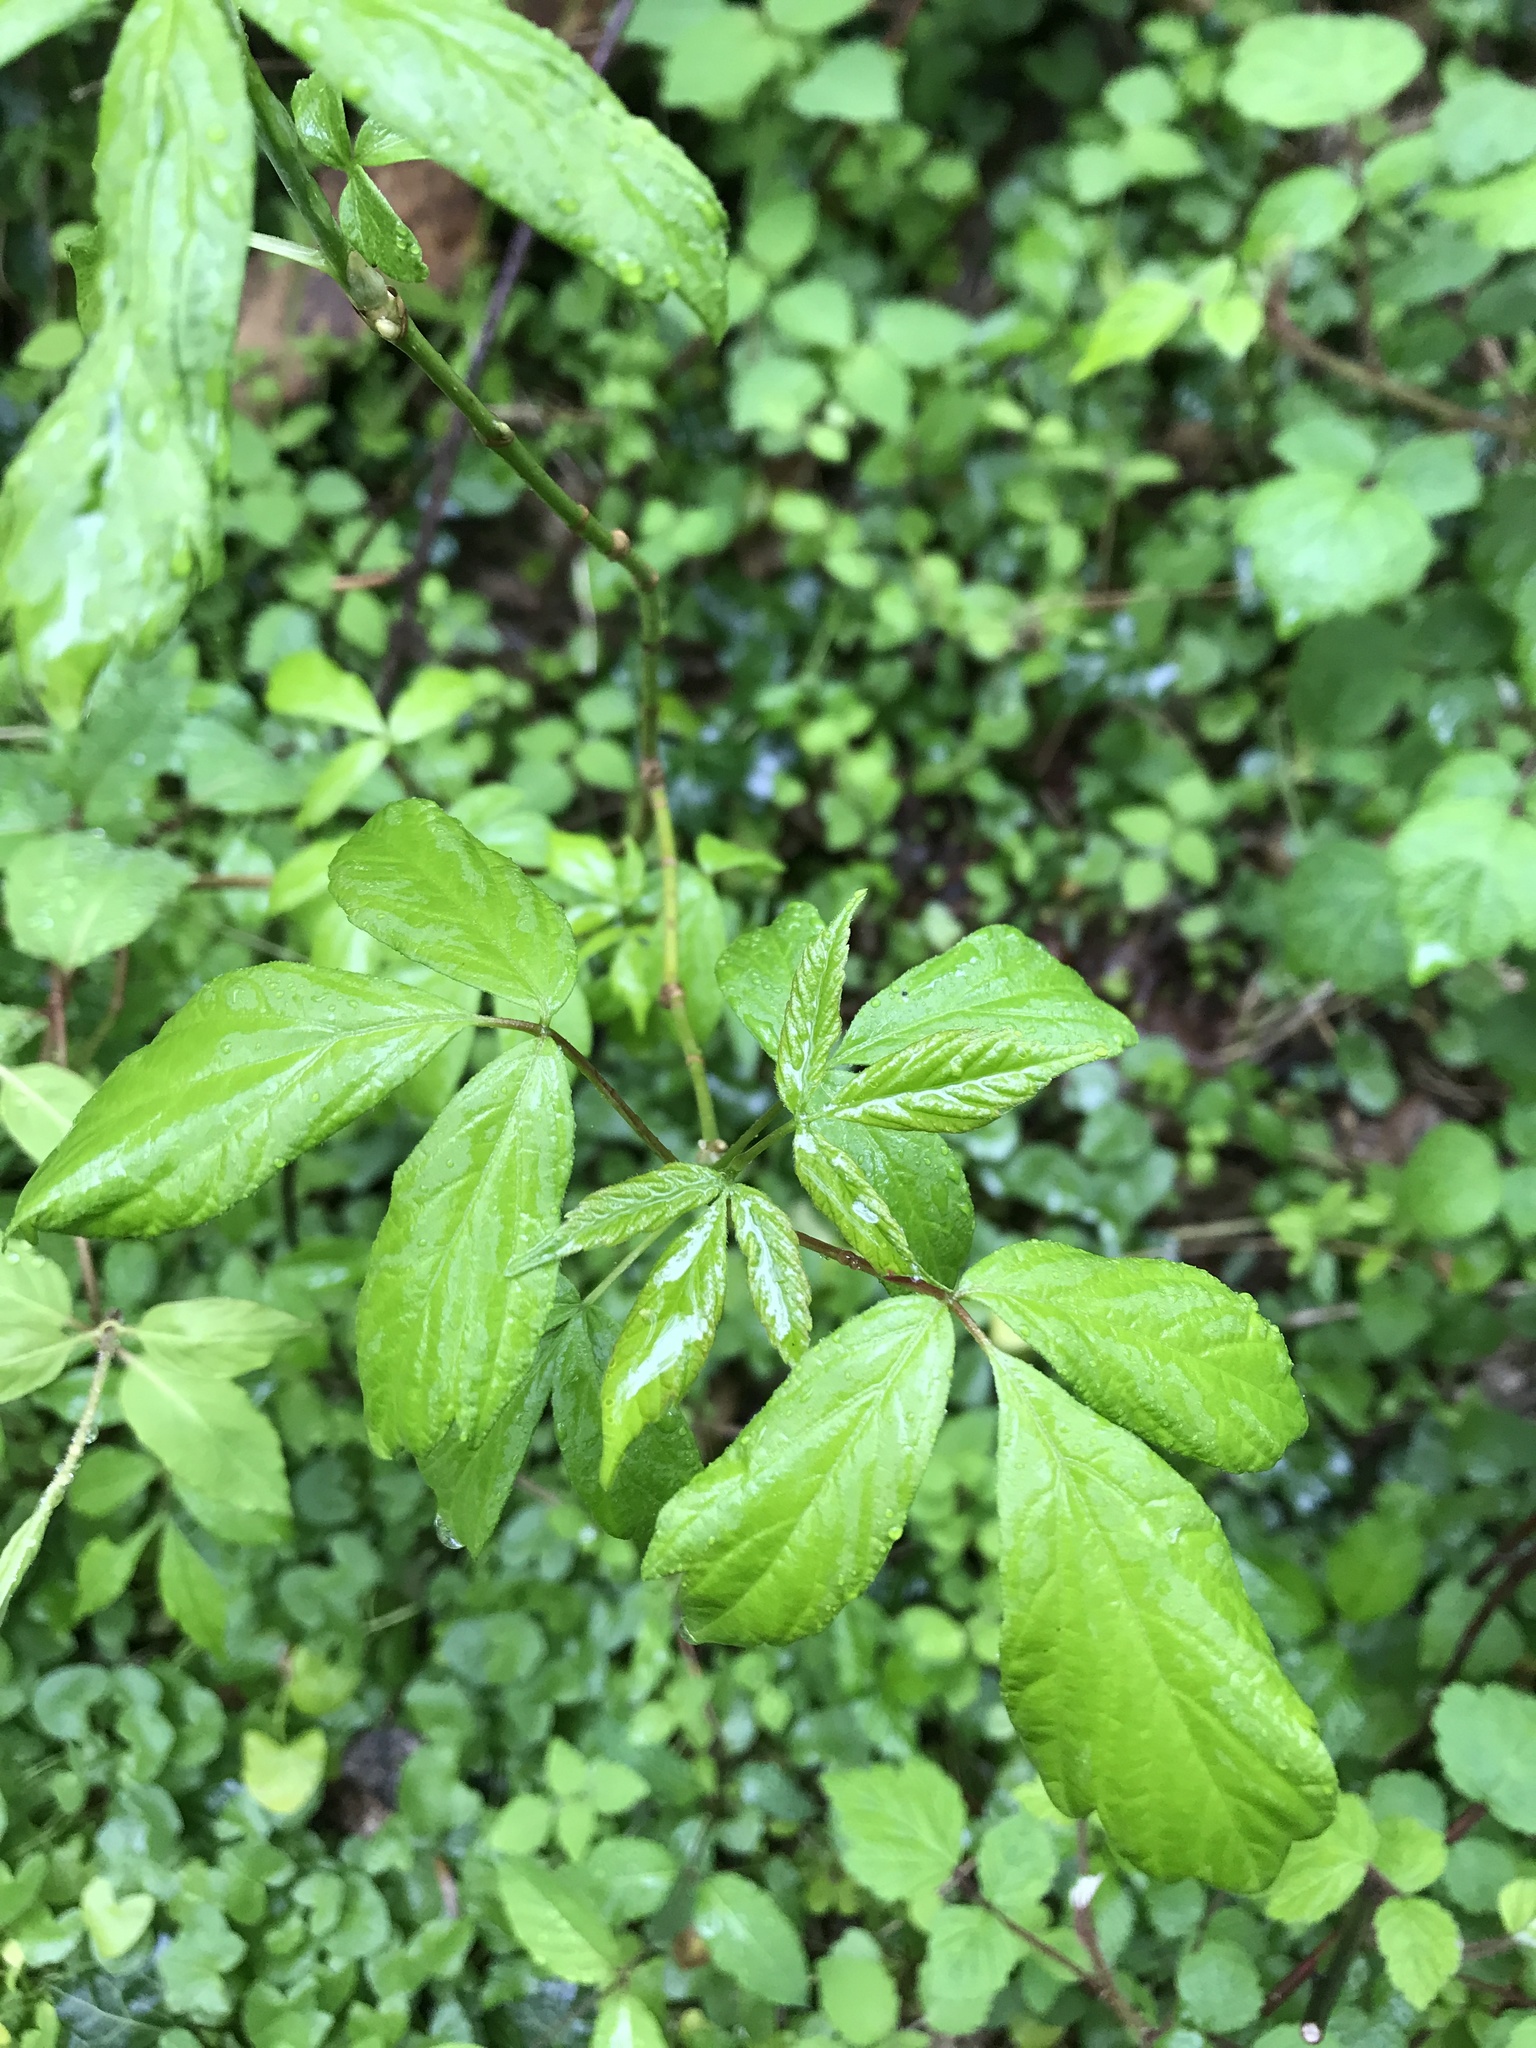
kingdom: Plantae
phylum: Tracheophyta
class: Magnoliopsida
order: Sapindales
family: Sapindaceae
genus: Acer
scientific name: Acer negundo
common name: Ashleaf maple
